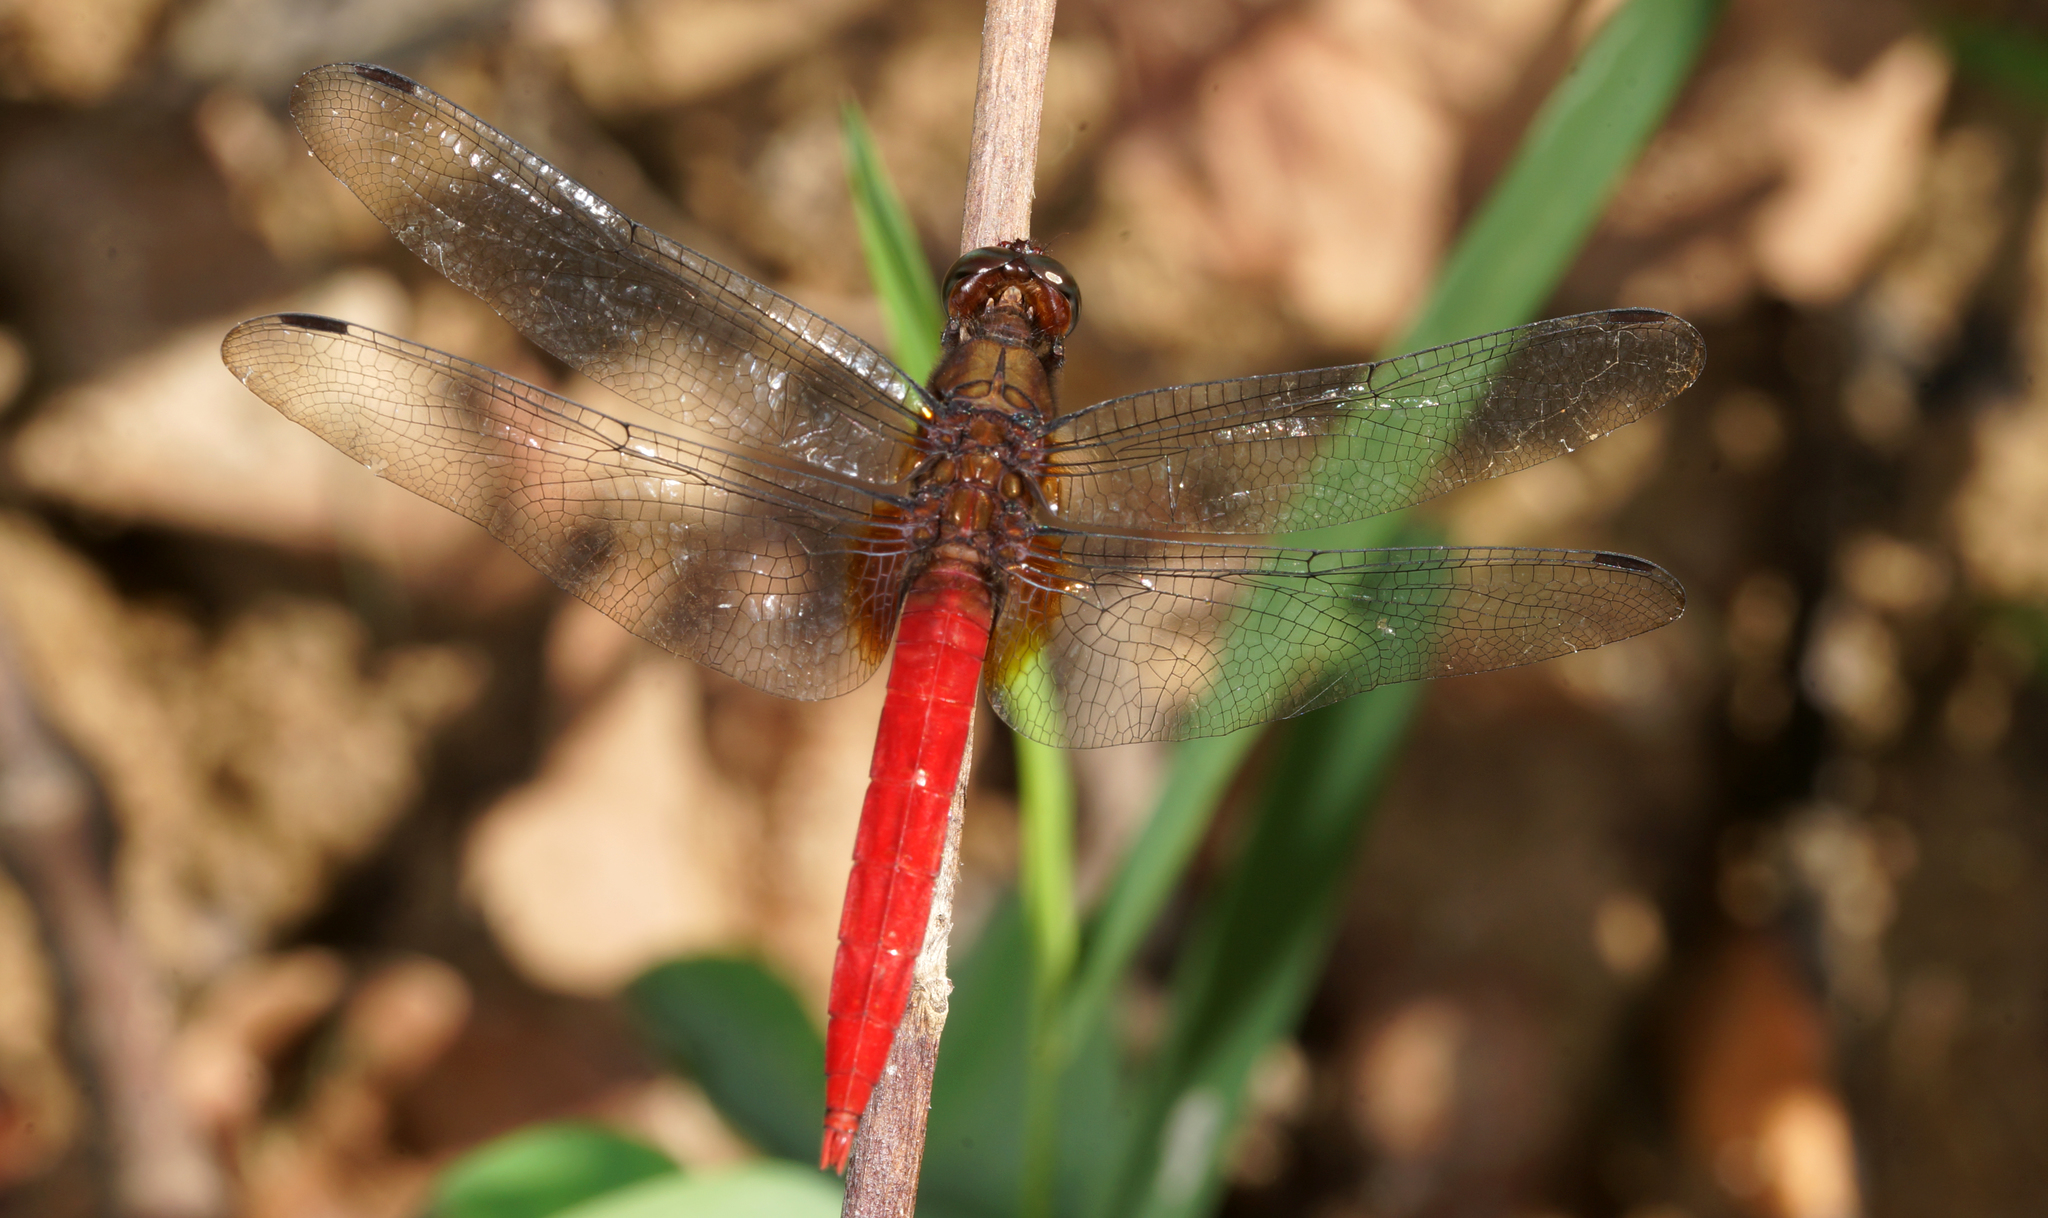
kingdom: Animalia
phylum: Arthropoda
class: Insecta
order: Odonata
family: Libellulidae
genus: Orthetrum
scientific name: Orthetrum chrysis
